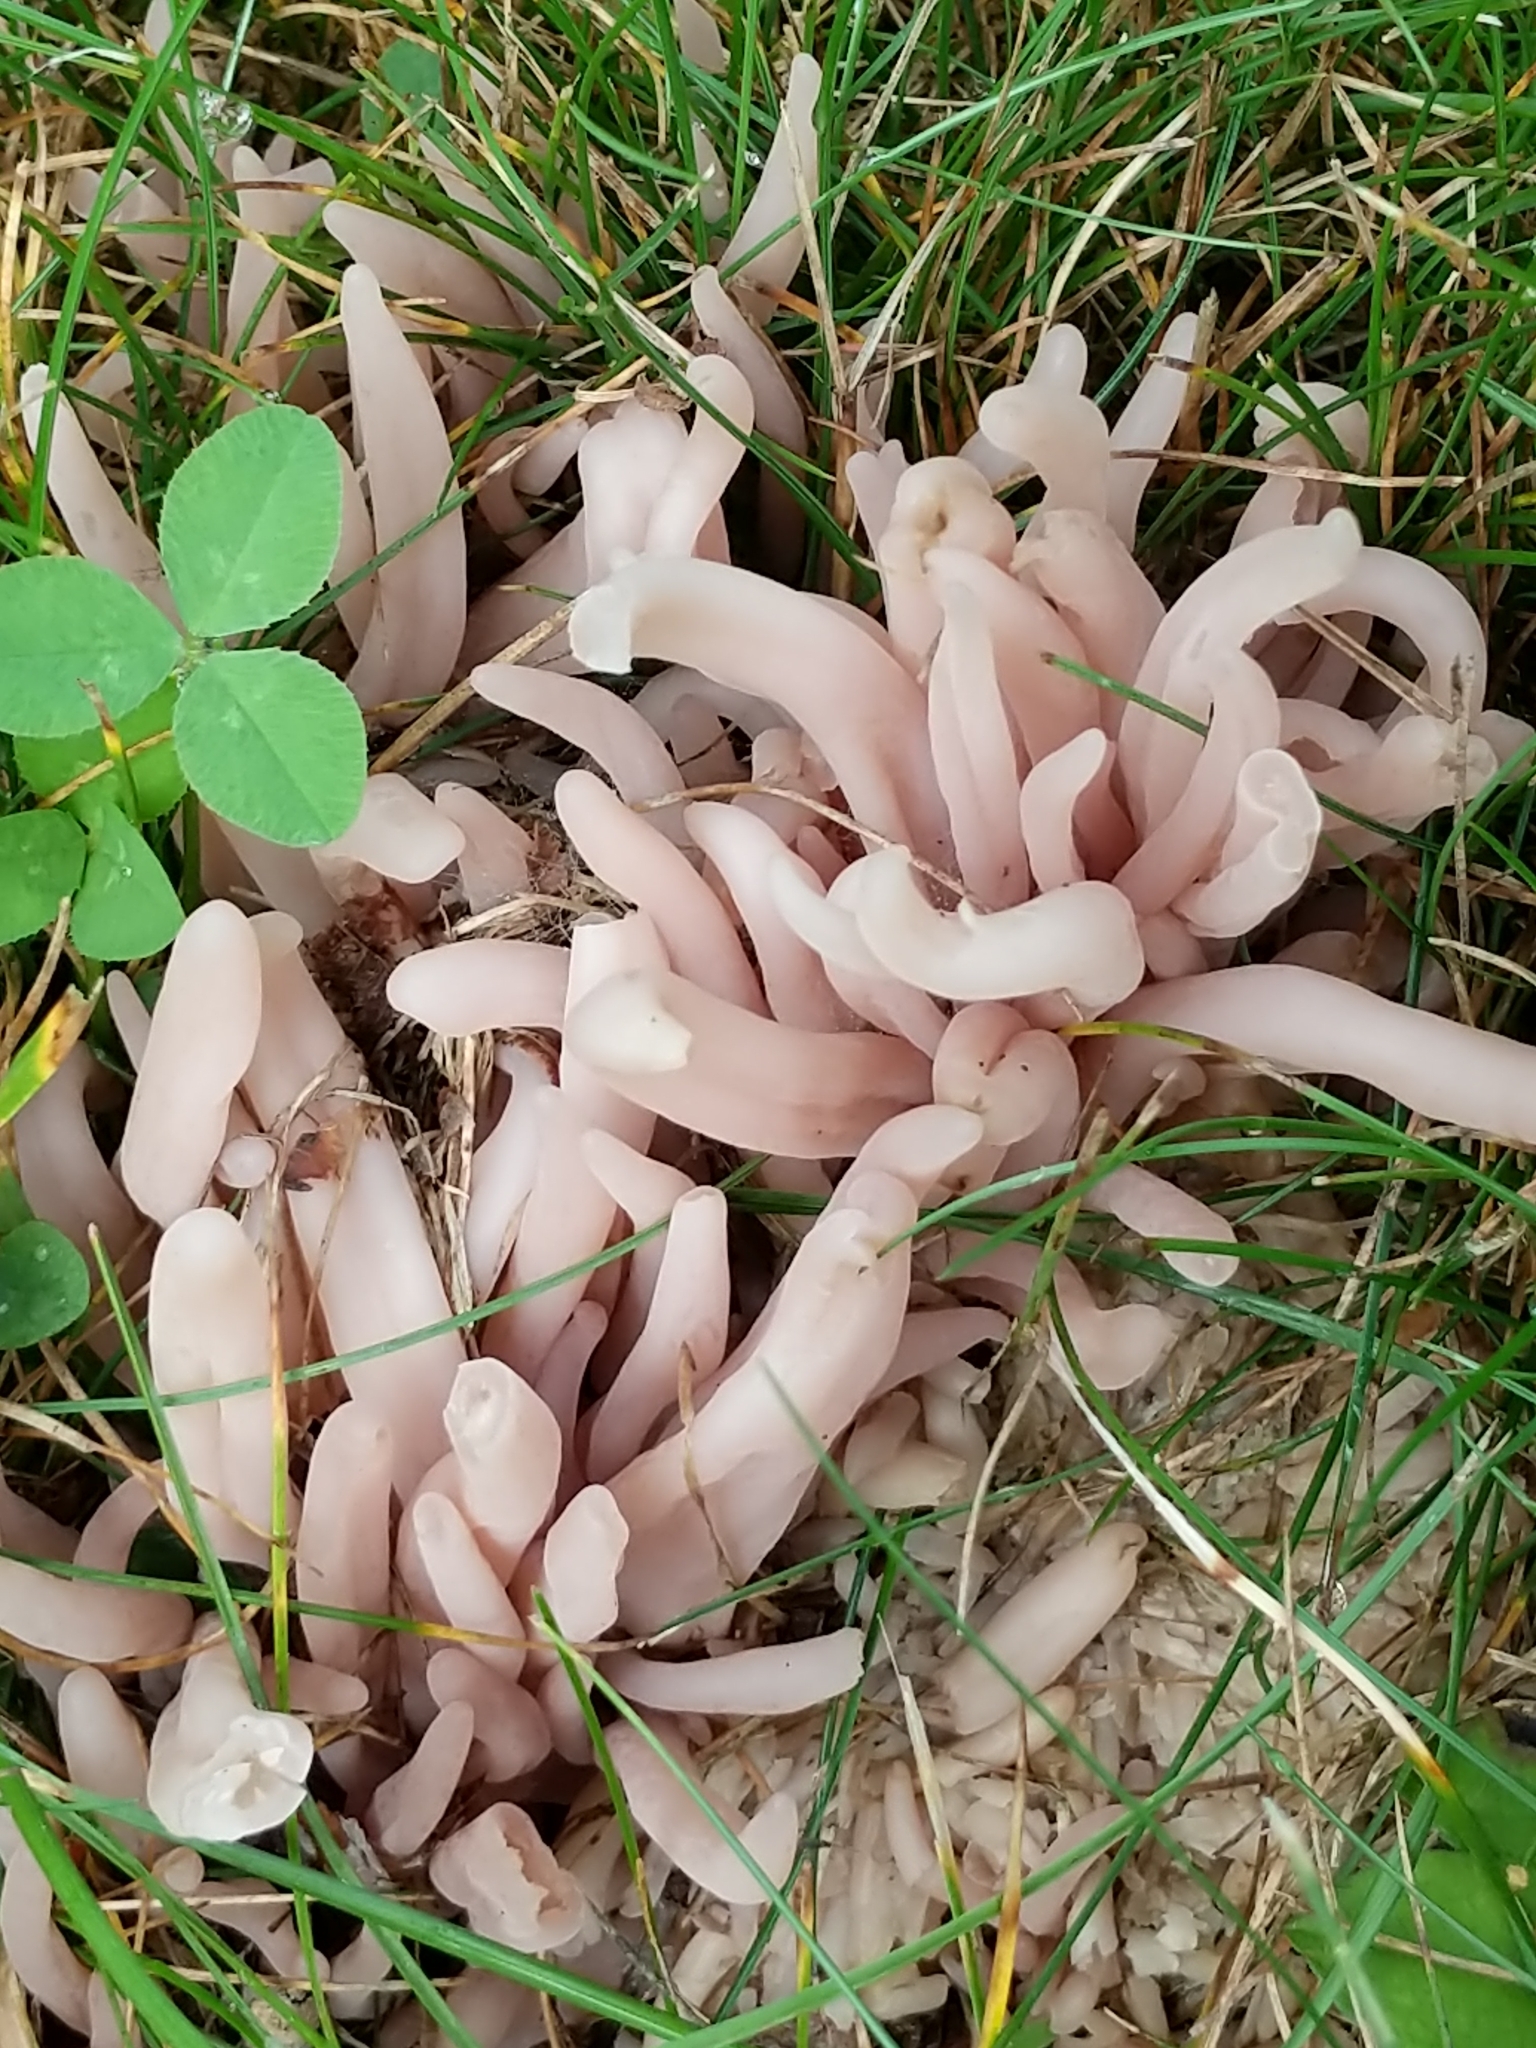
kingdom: Fungi
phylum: Basidiomycota
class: Agaricomycetes
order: Agaricales
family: Clavariaceae
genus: Clavaria
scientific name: Clavaria fumosa
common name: Smoky spindles
